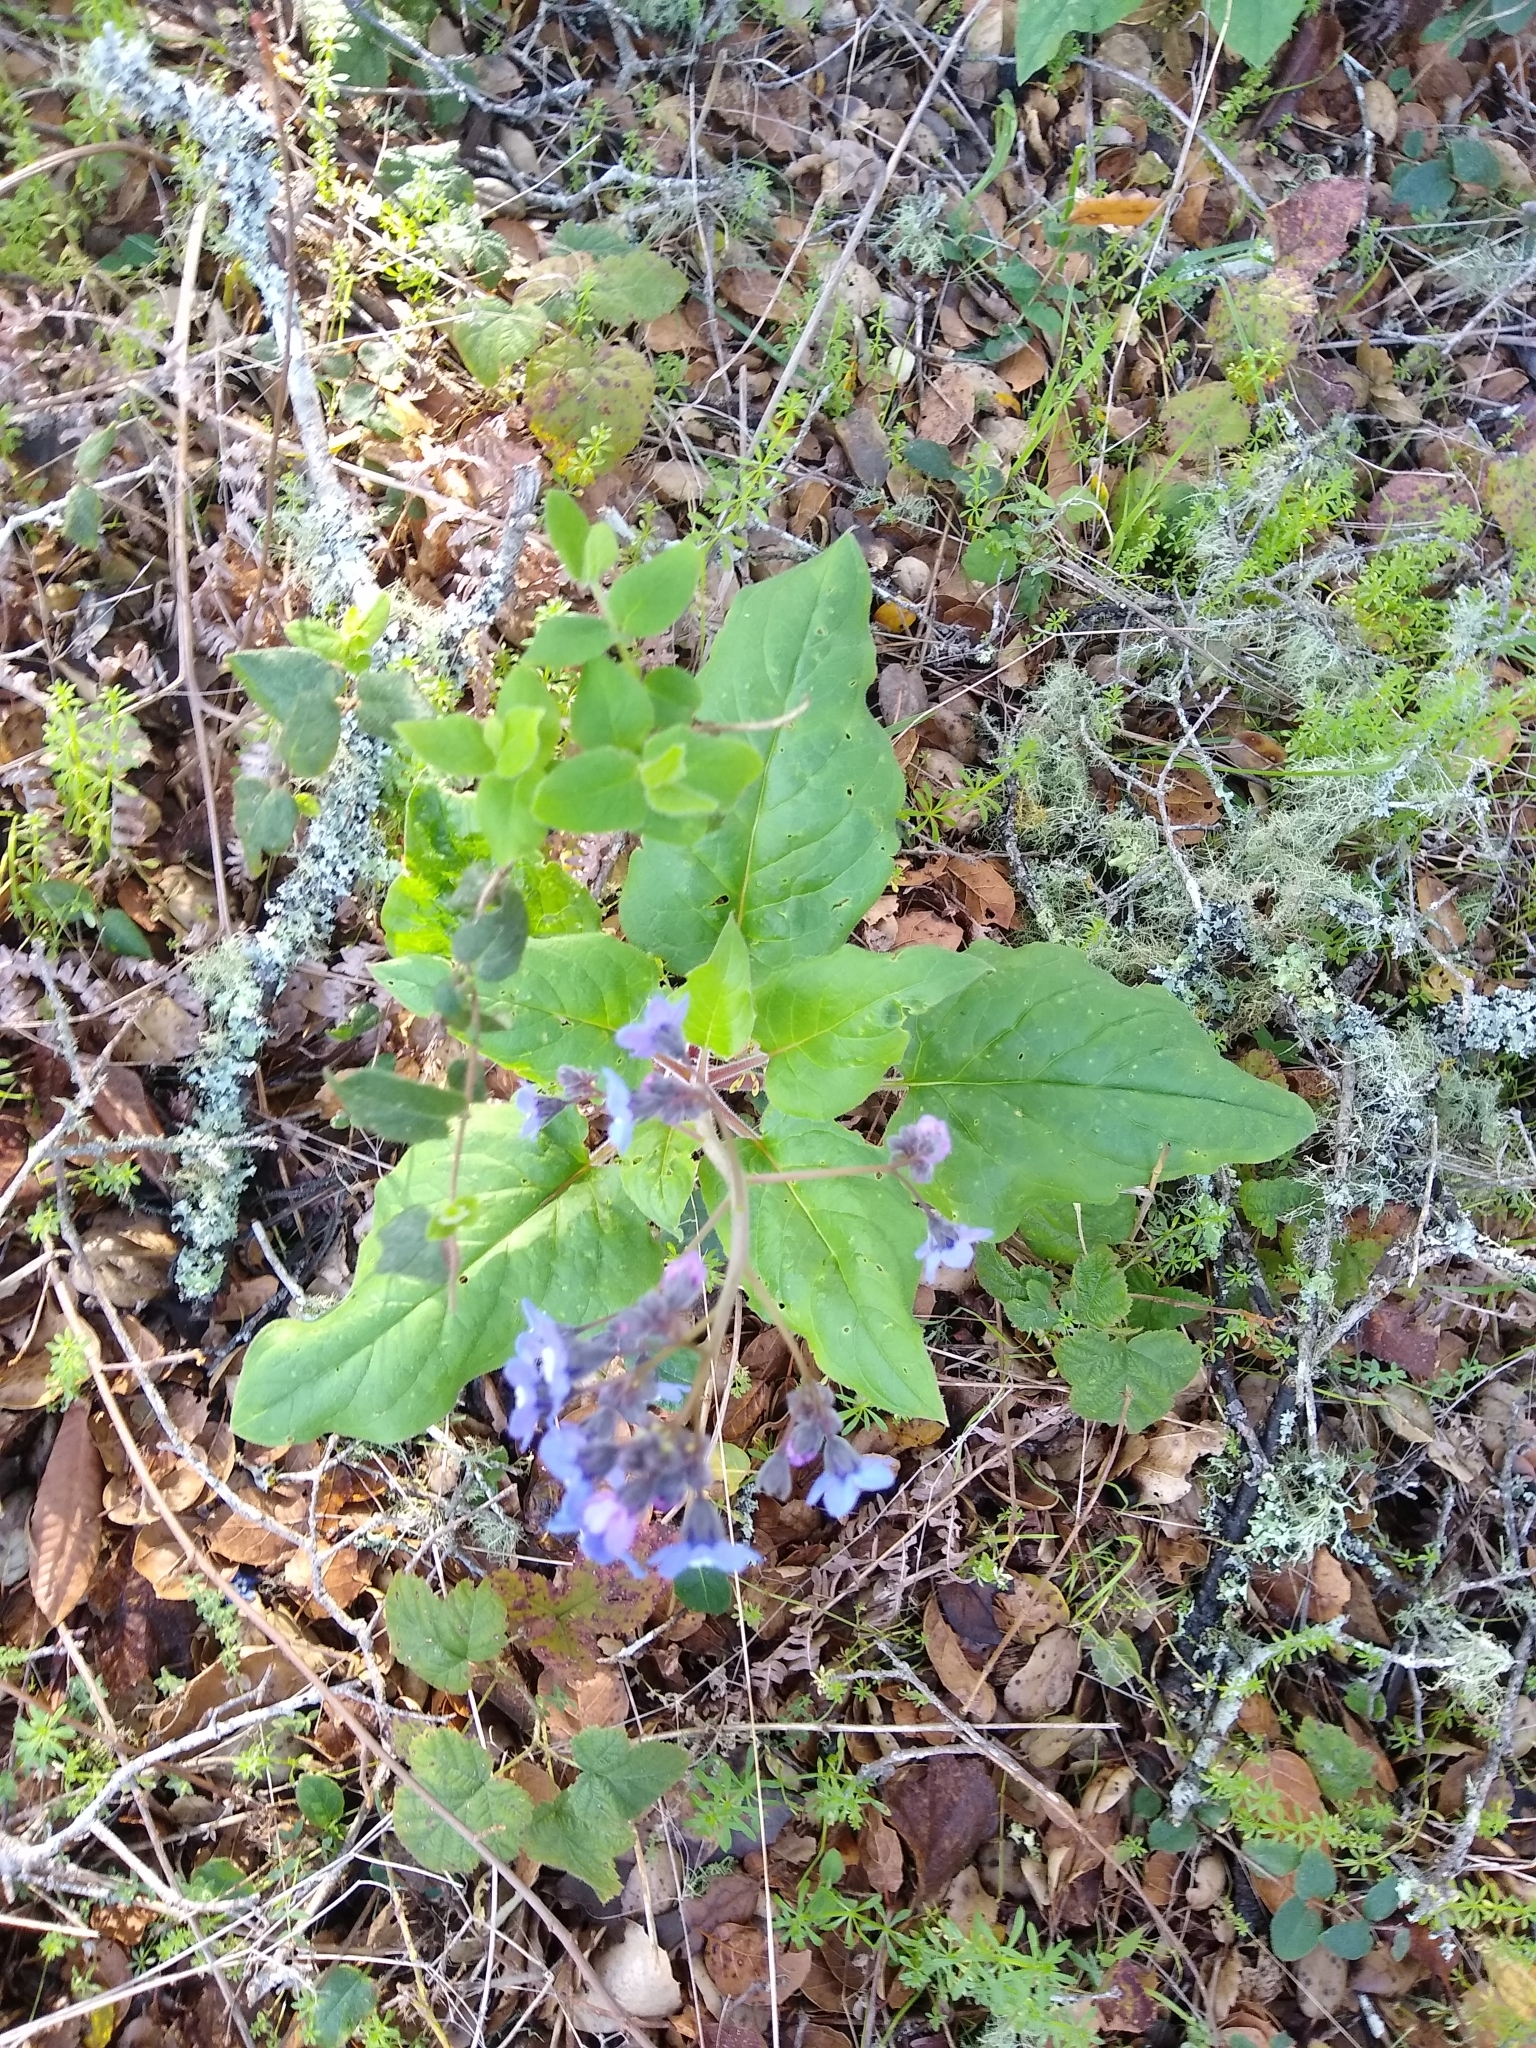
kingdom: Plantae
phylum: Tracheophyta
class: Magnoliopsida
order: Boraginales
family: Boraginaceae
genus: Adelinia
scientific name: Adelinia grande
